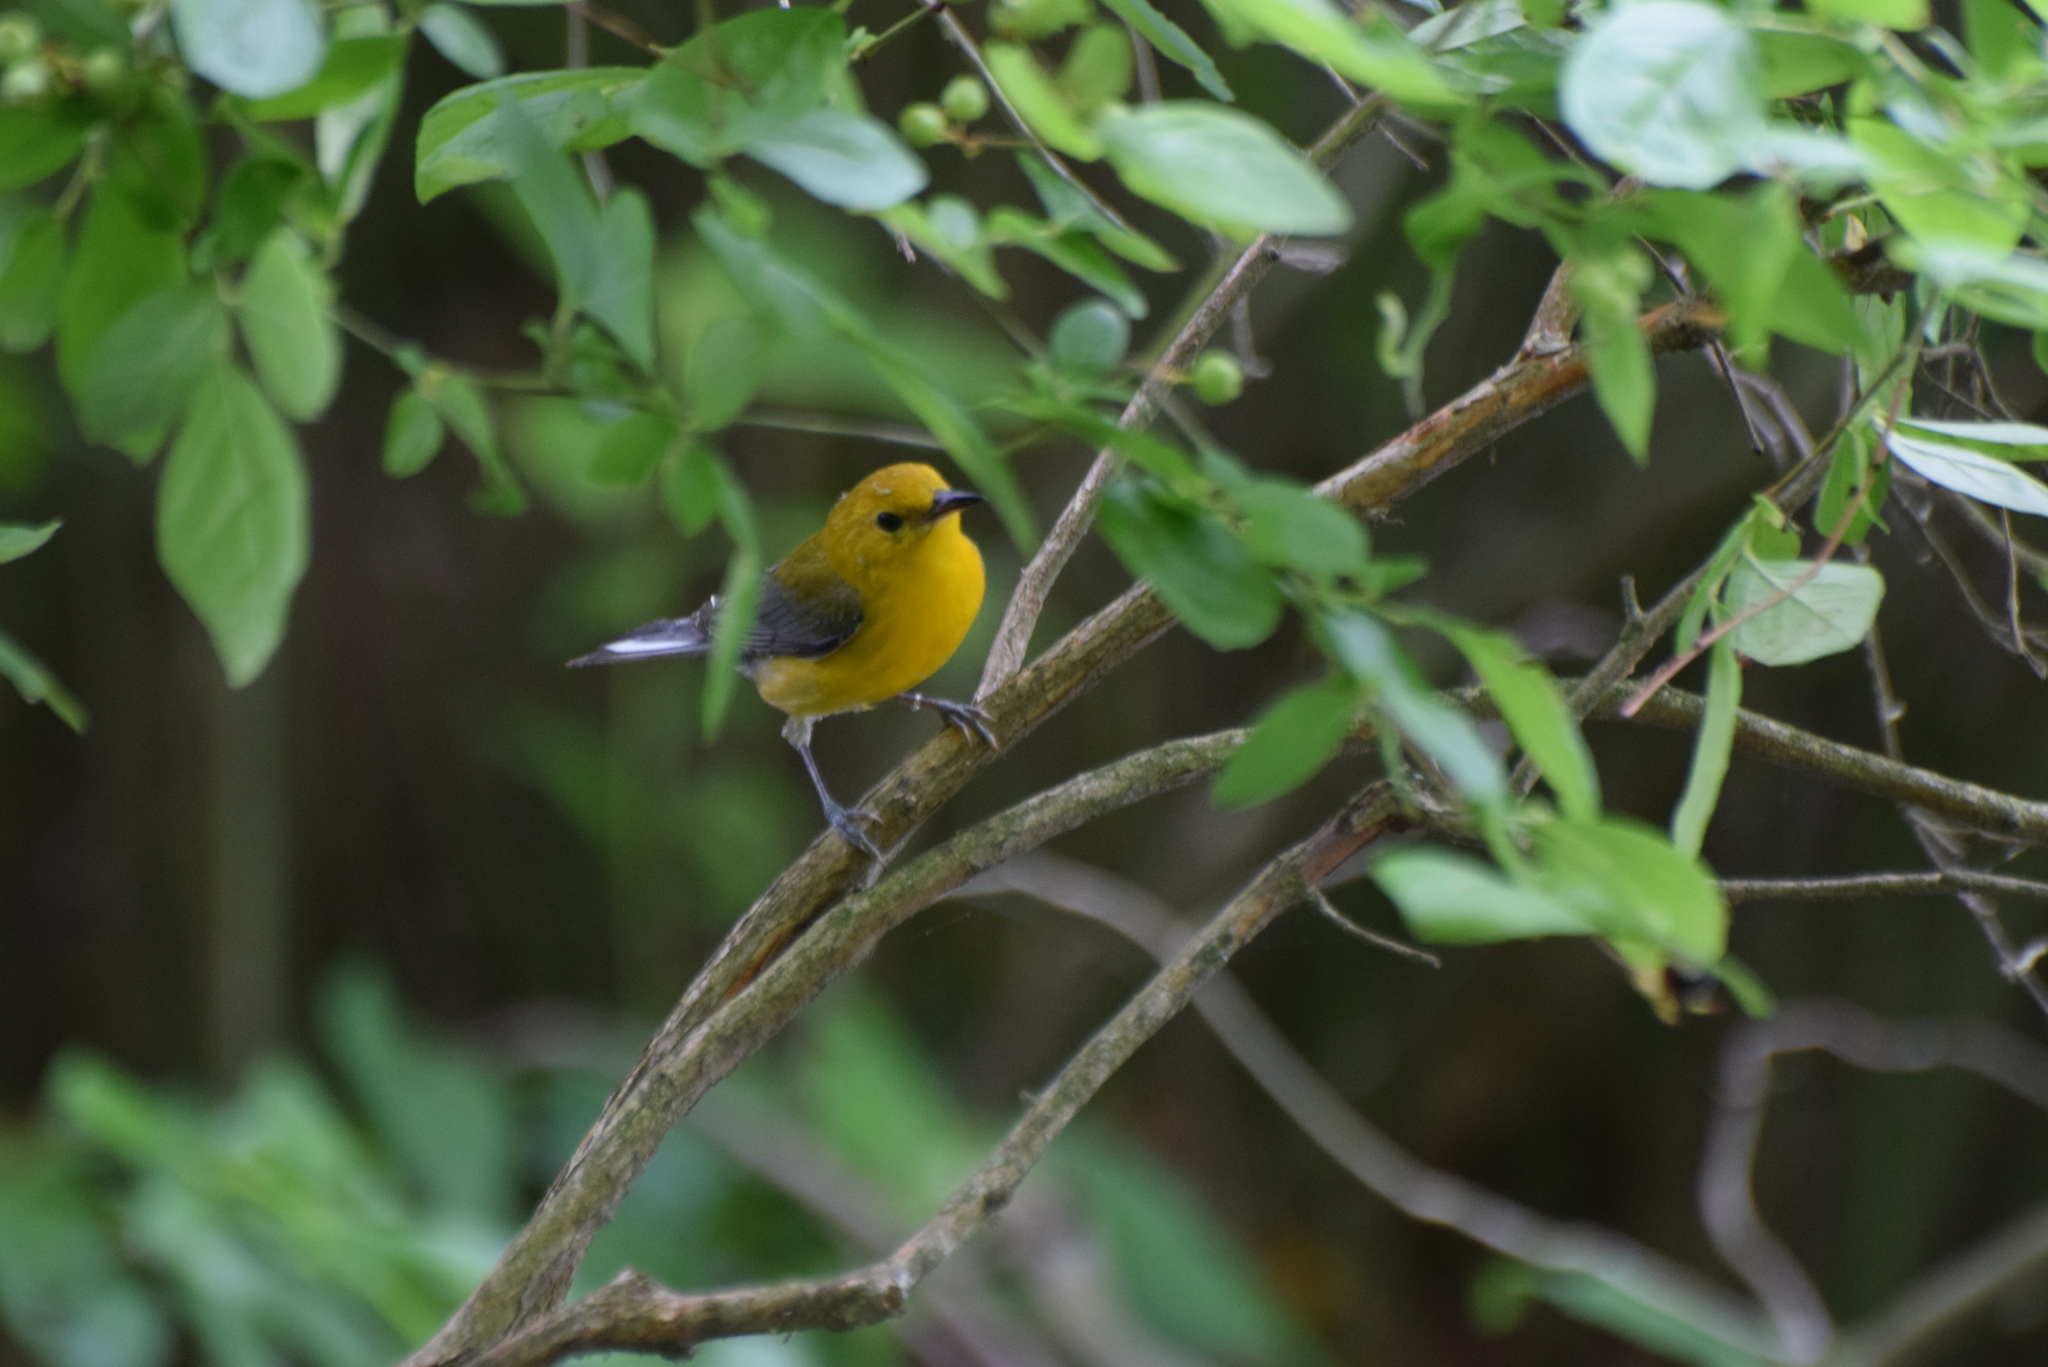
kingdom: Animalia
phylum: Chordata
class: Aves
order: Passeriformes
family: Parulidae
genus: Protonotaria
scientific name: Protonotaria citrea
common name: Prothonotary warbler
